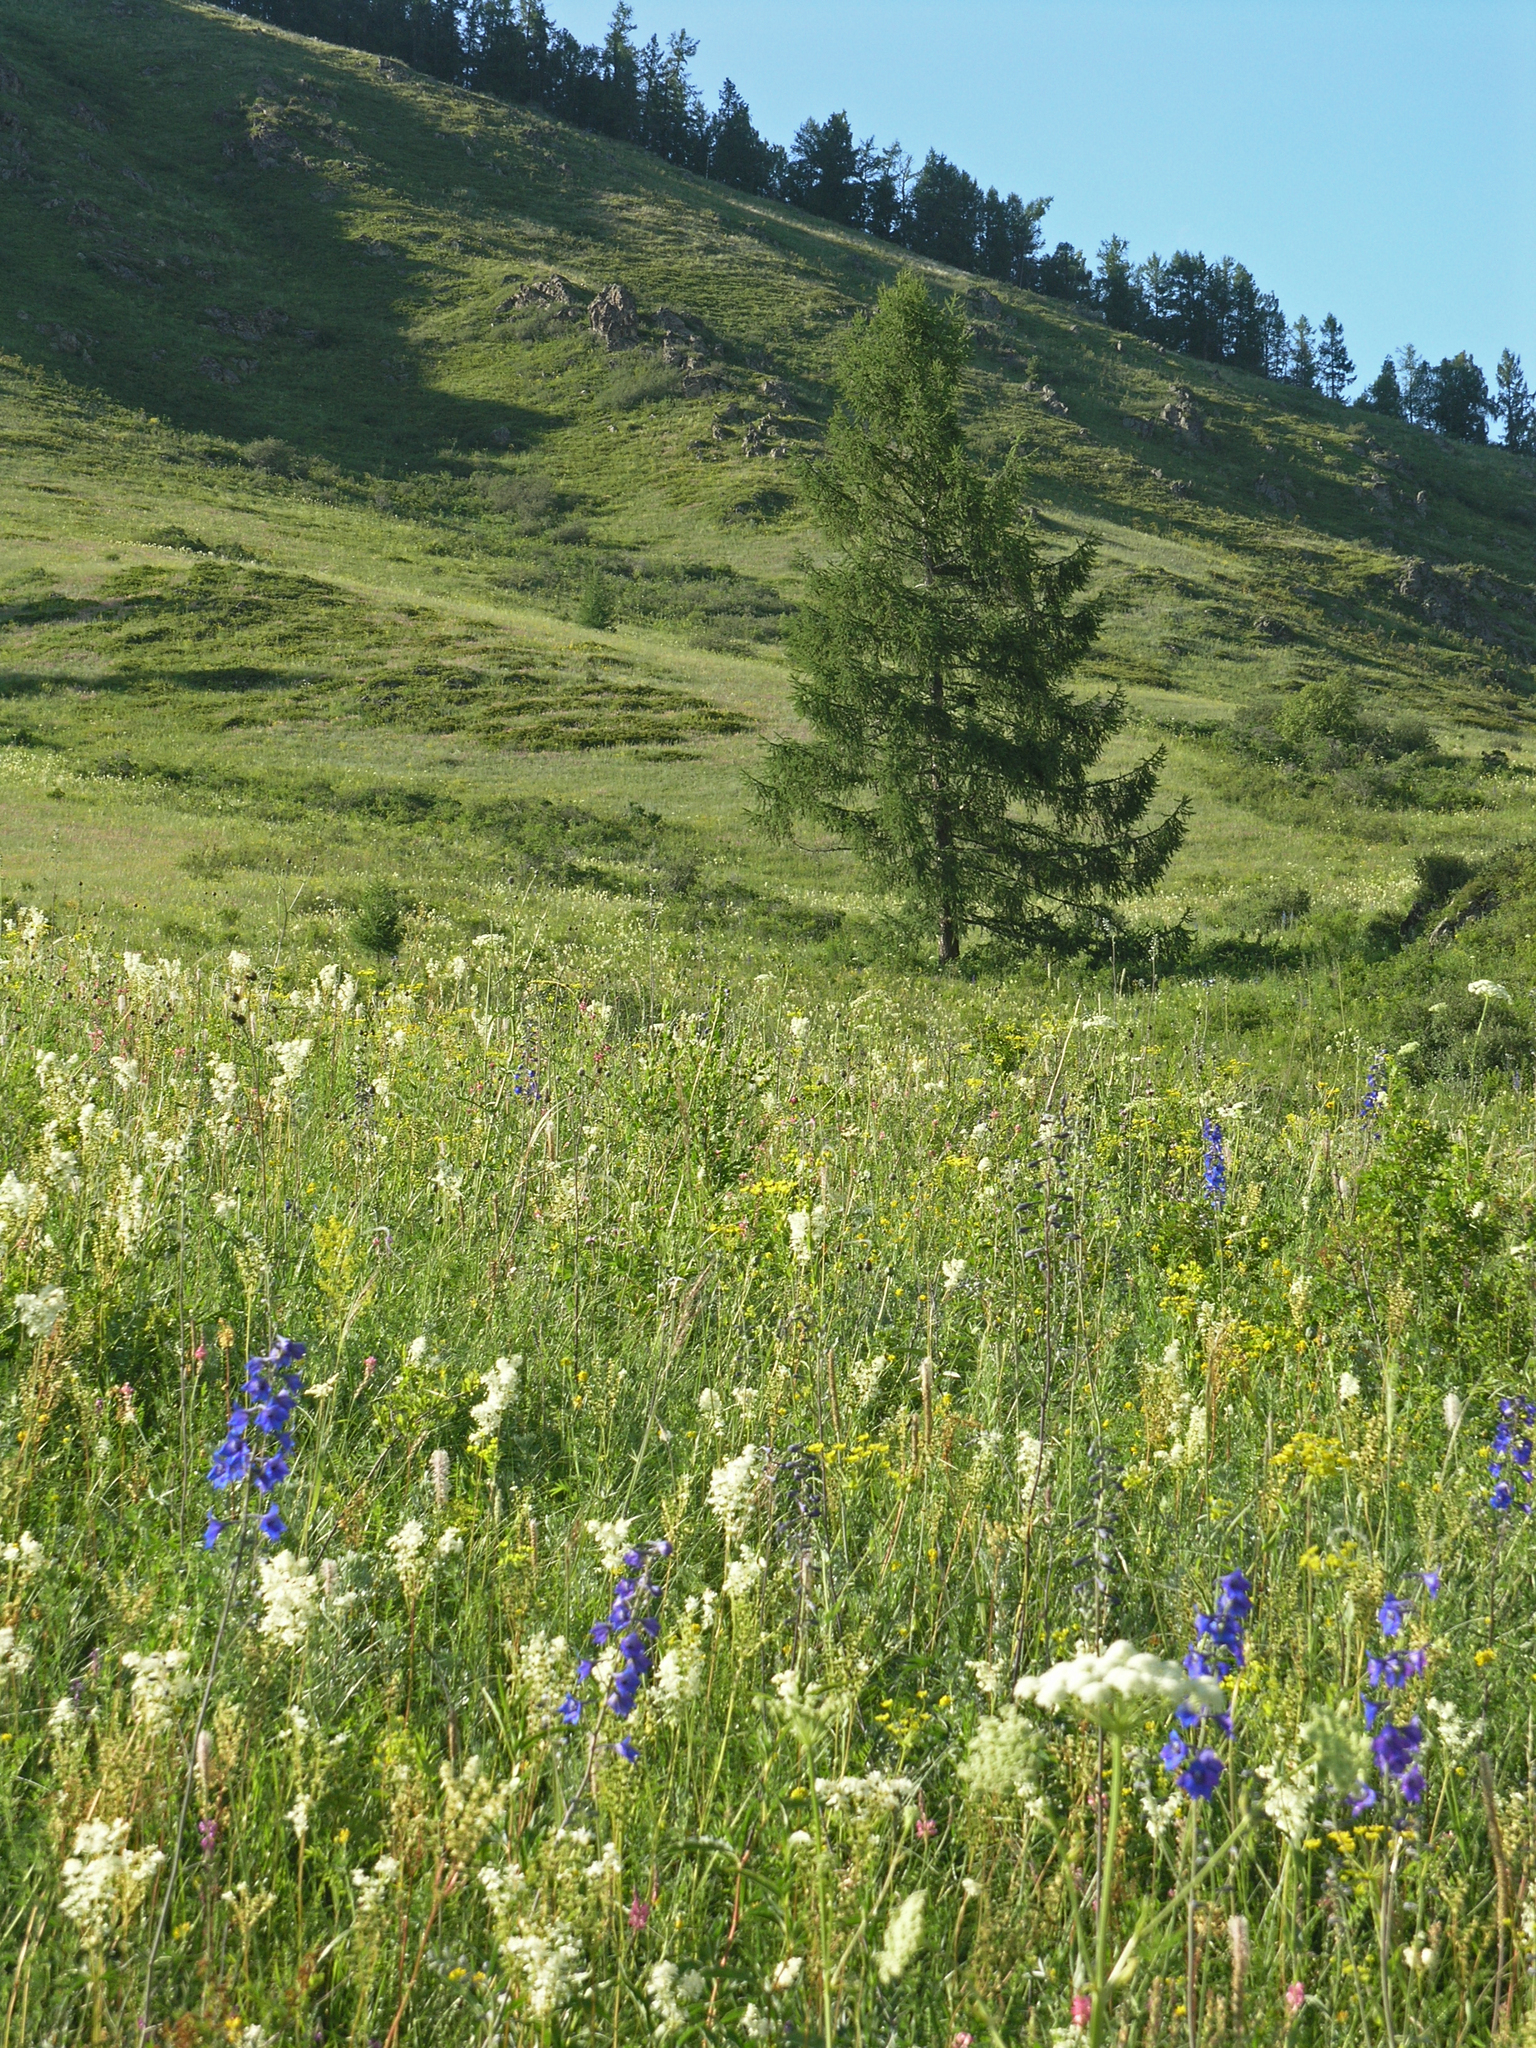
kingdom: Plantae
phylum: Tracheophyta
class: Pinopsida
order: Pinales
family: Pinaceae
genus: Larix
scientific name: Larix sibirica
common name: Siberian larch
